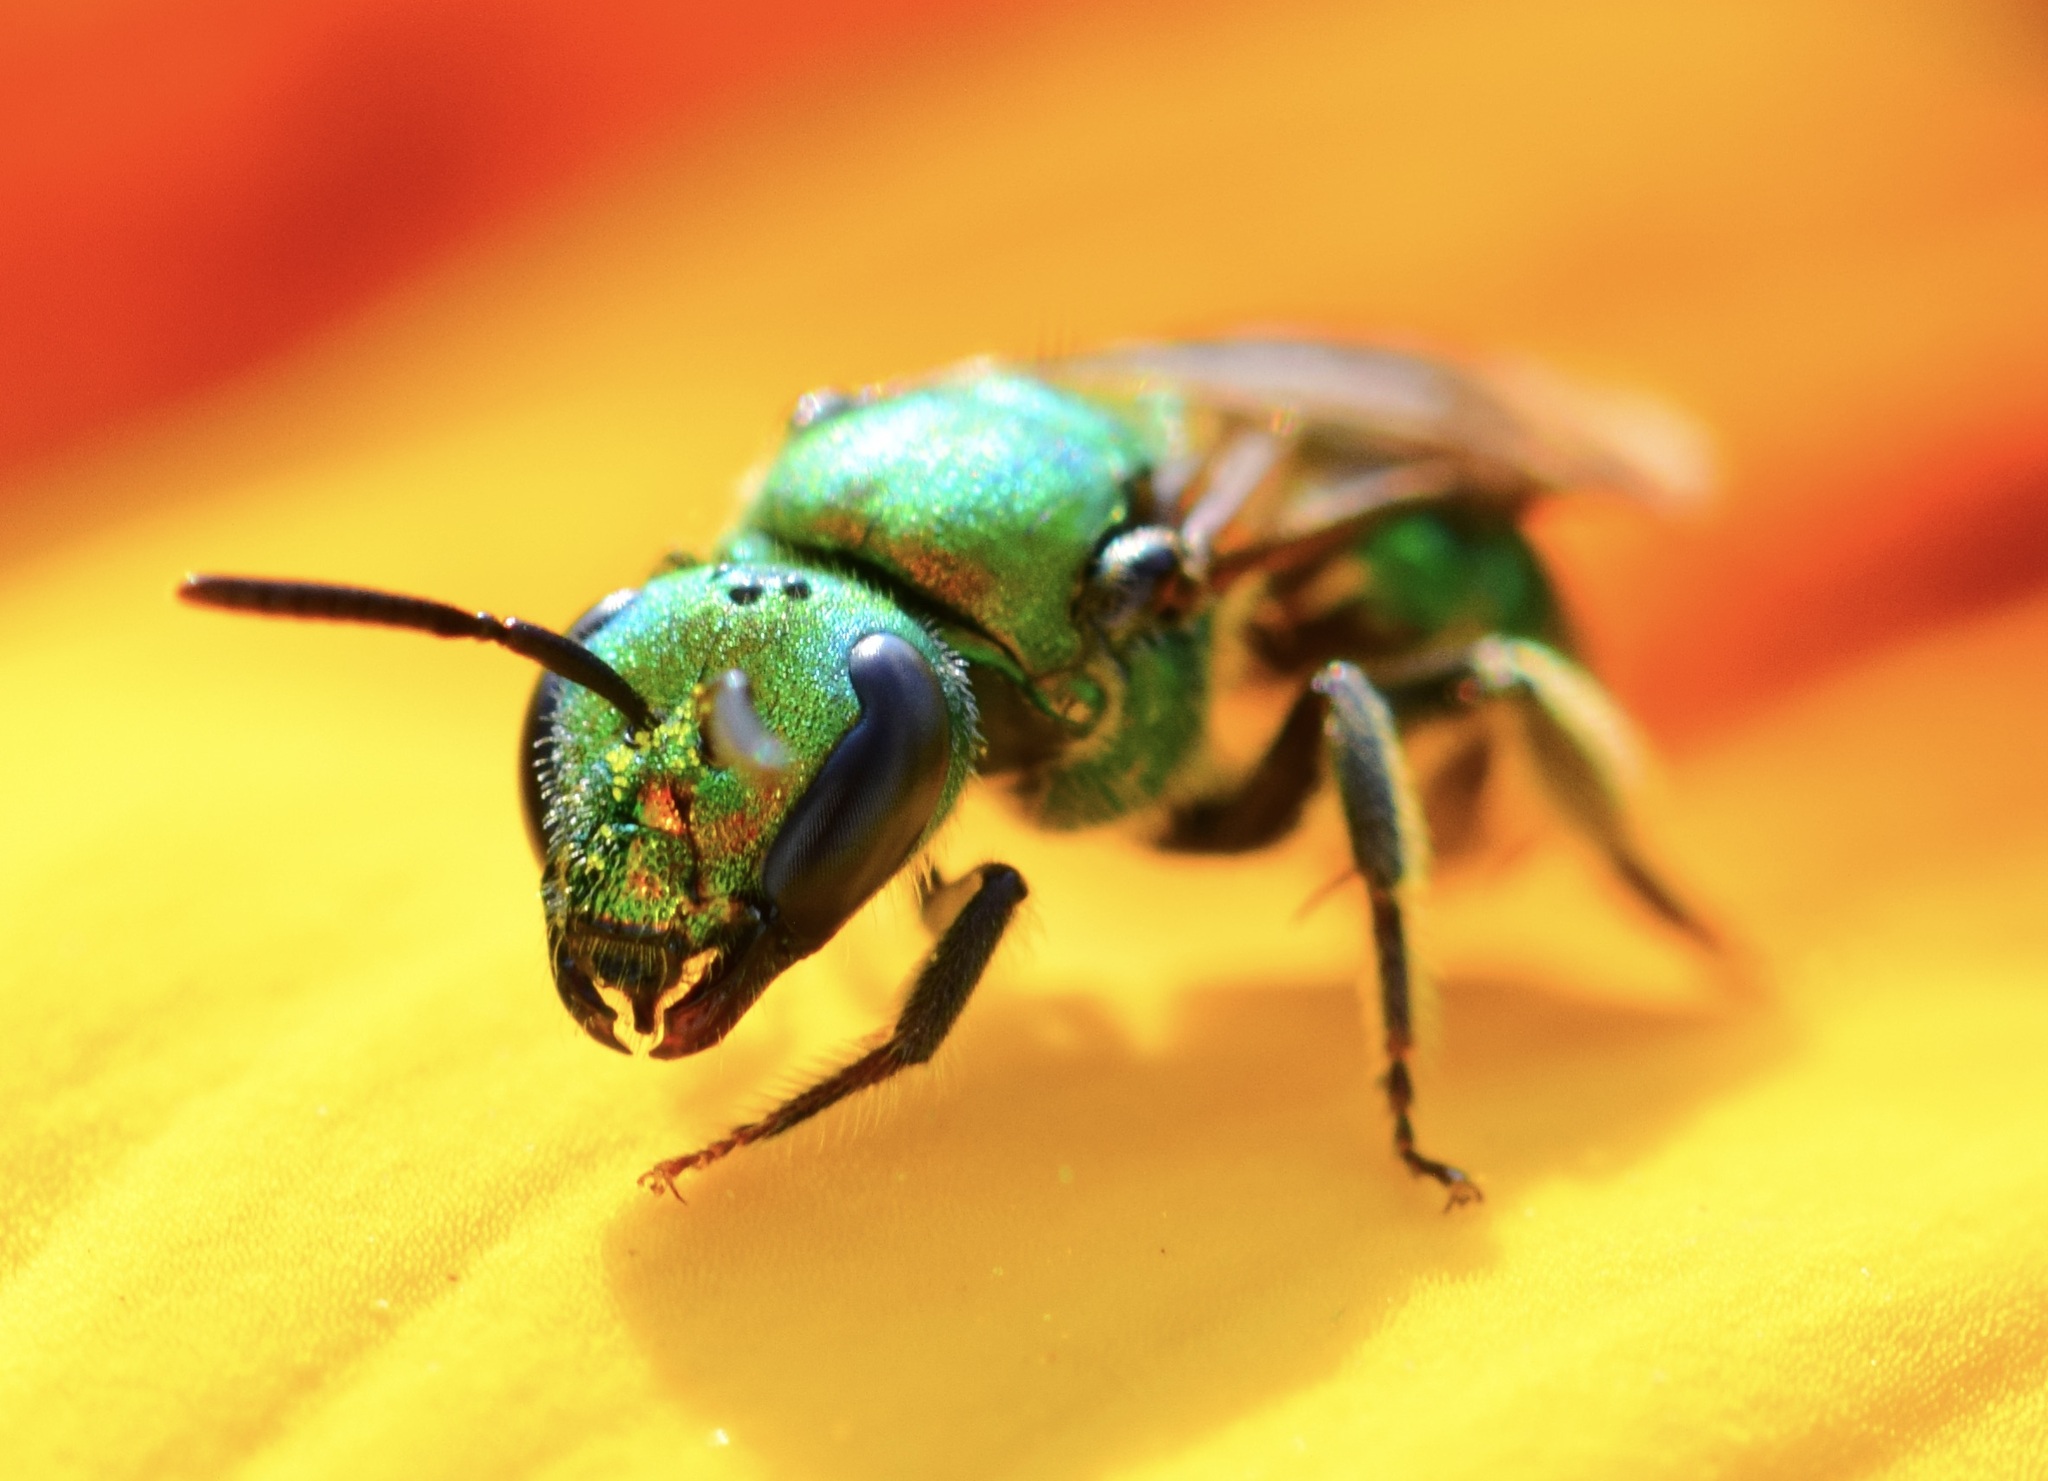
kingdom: Animalia
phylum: Arthropoda
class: Insecta
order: Hymenoptera
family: Halictidae
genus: Augochlora
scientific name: Augochlora pura
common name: Pure green sweat bee
